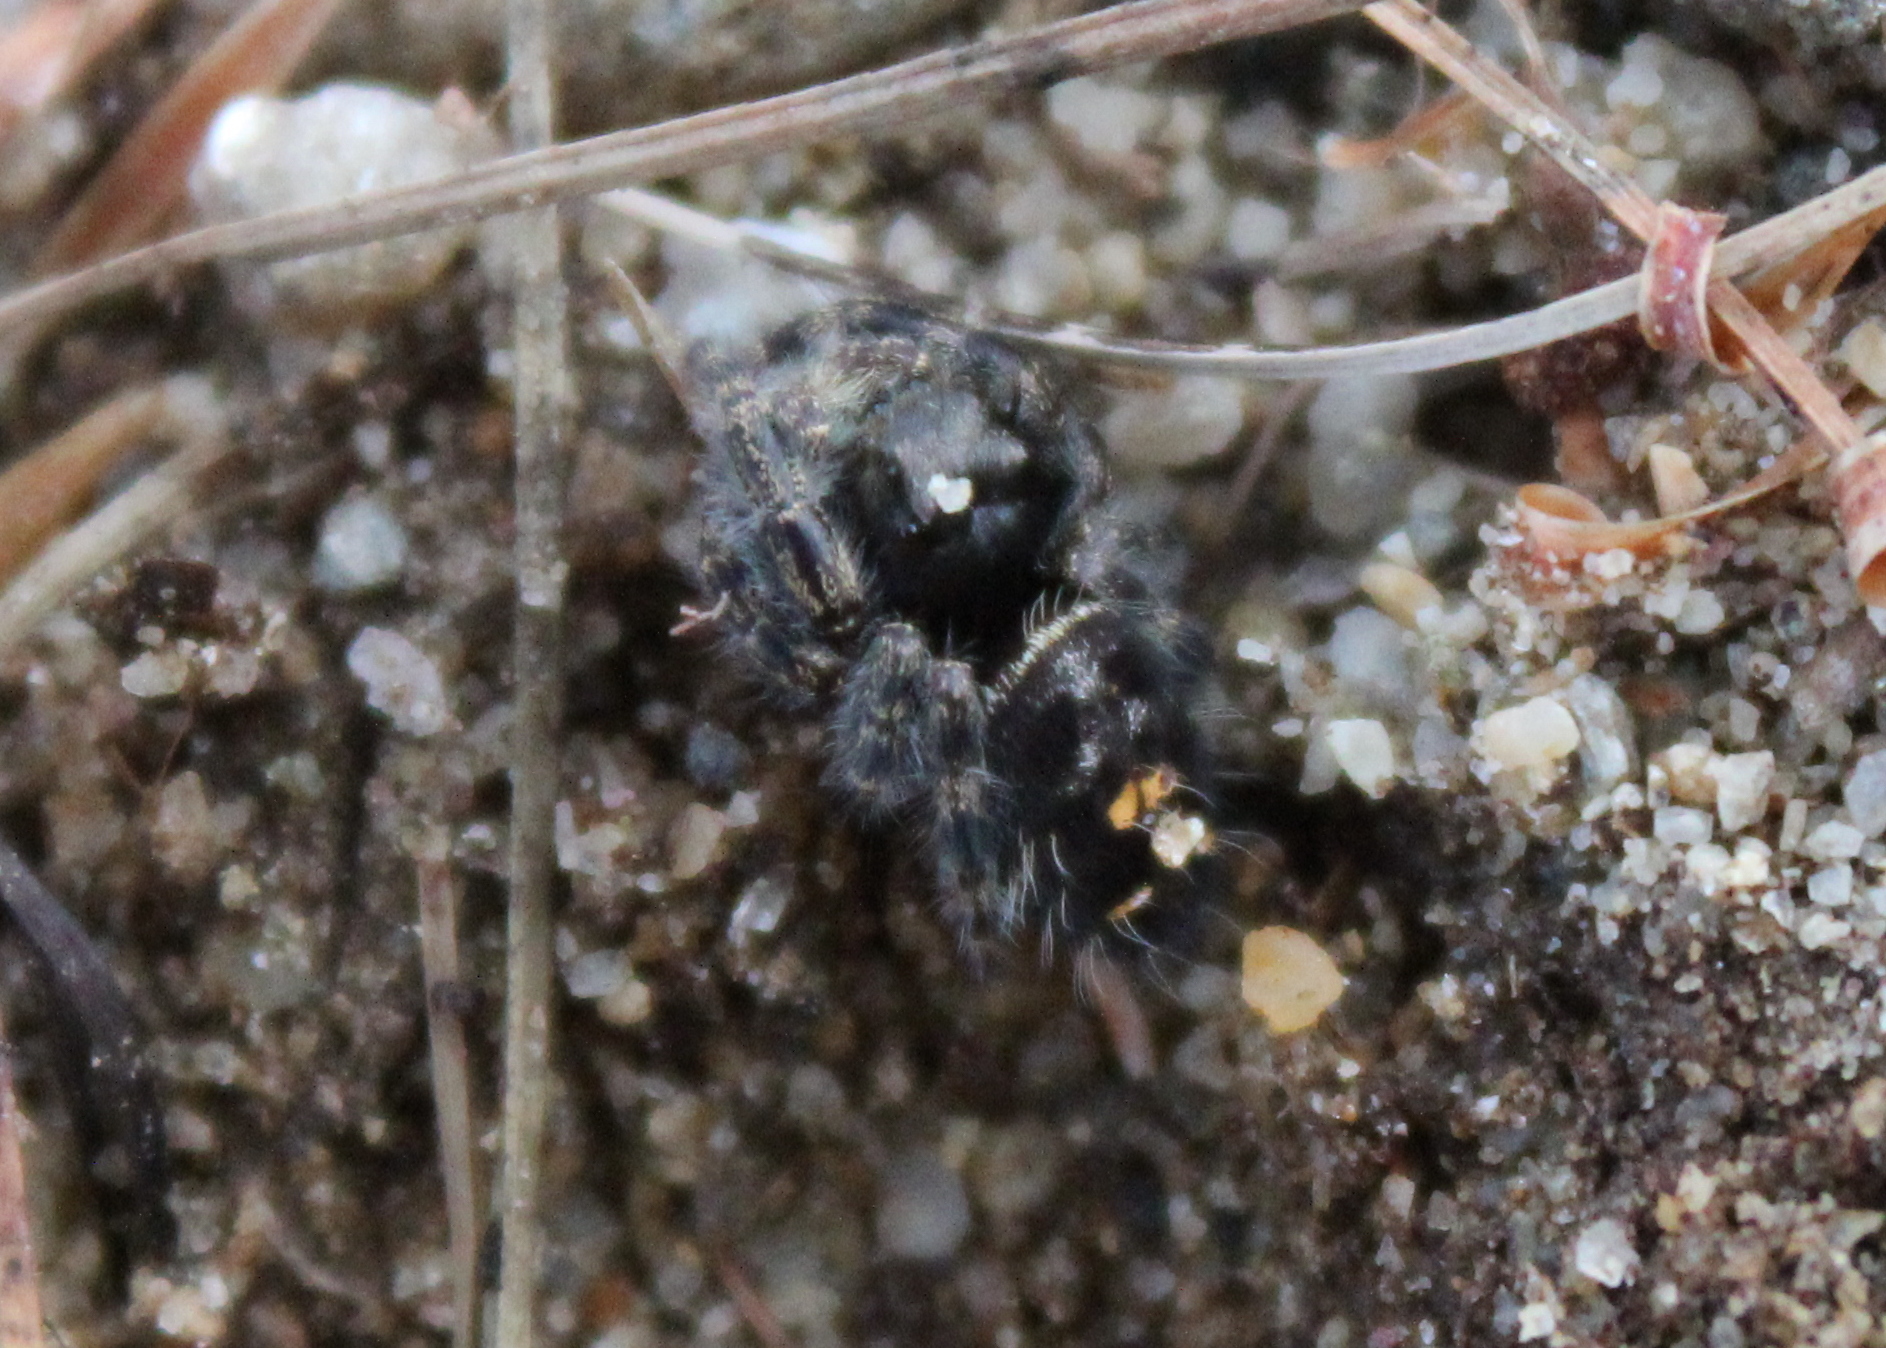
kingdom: Animalia
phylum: Arthropoda
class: Arachnida
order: Araneae
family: Salticidae
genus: Phidippus
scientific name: Phidippus audax
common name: Bold jumper
